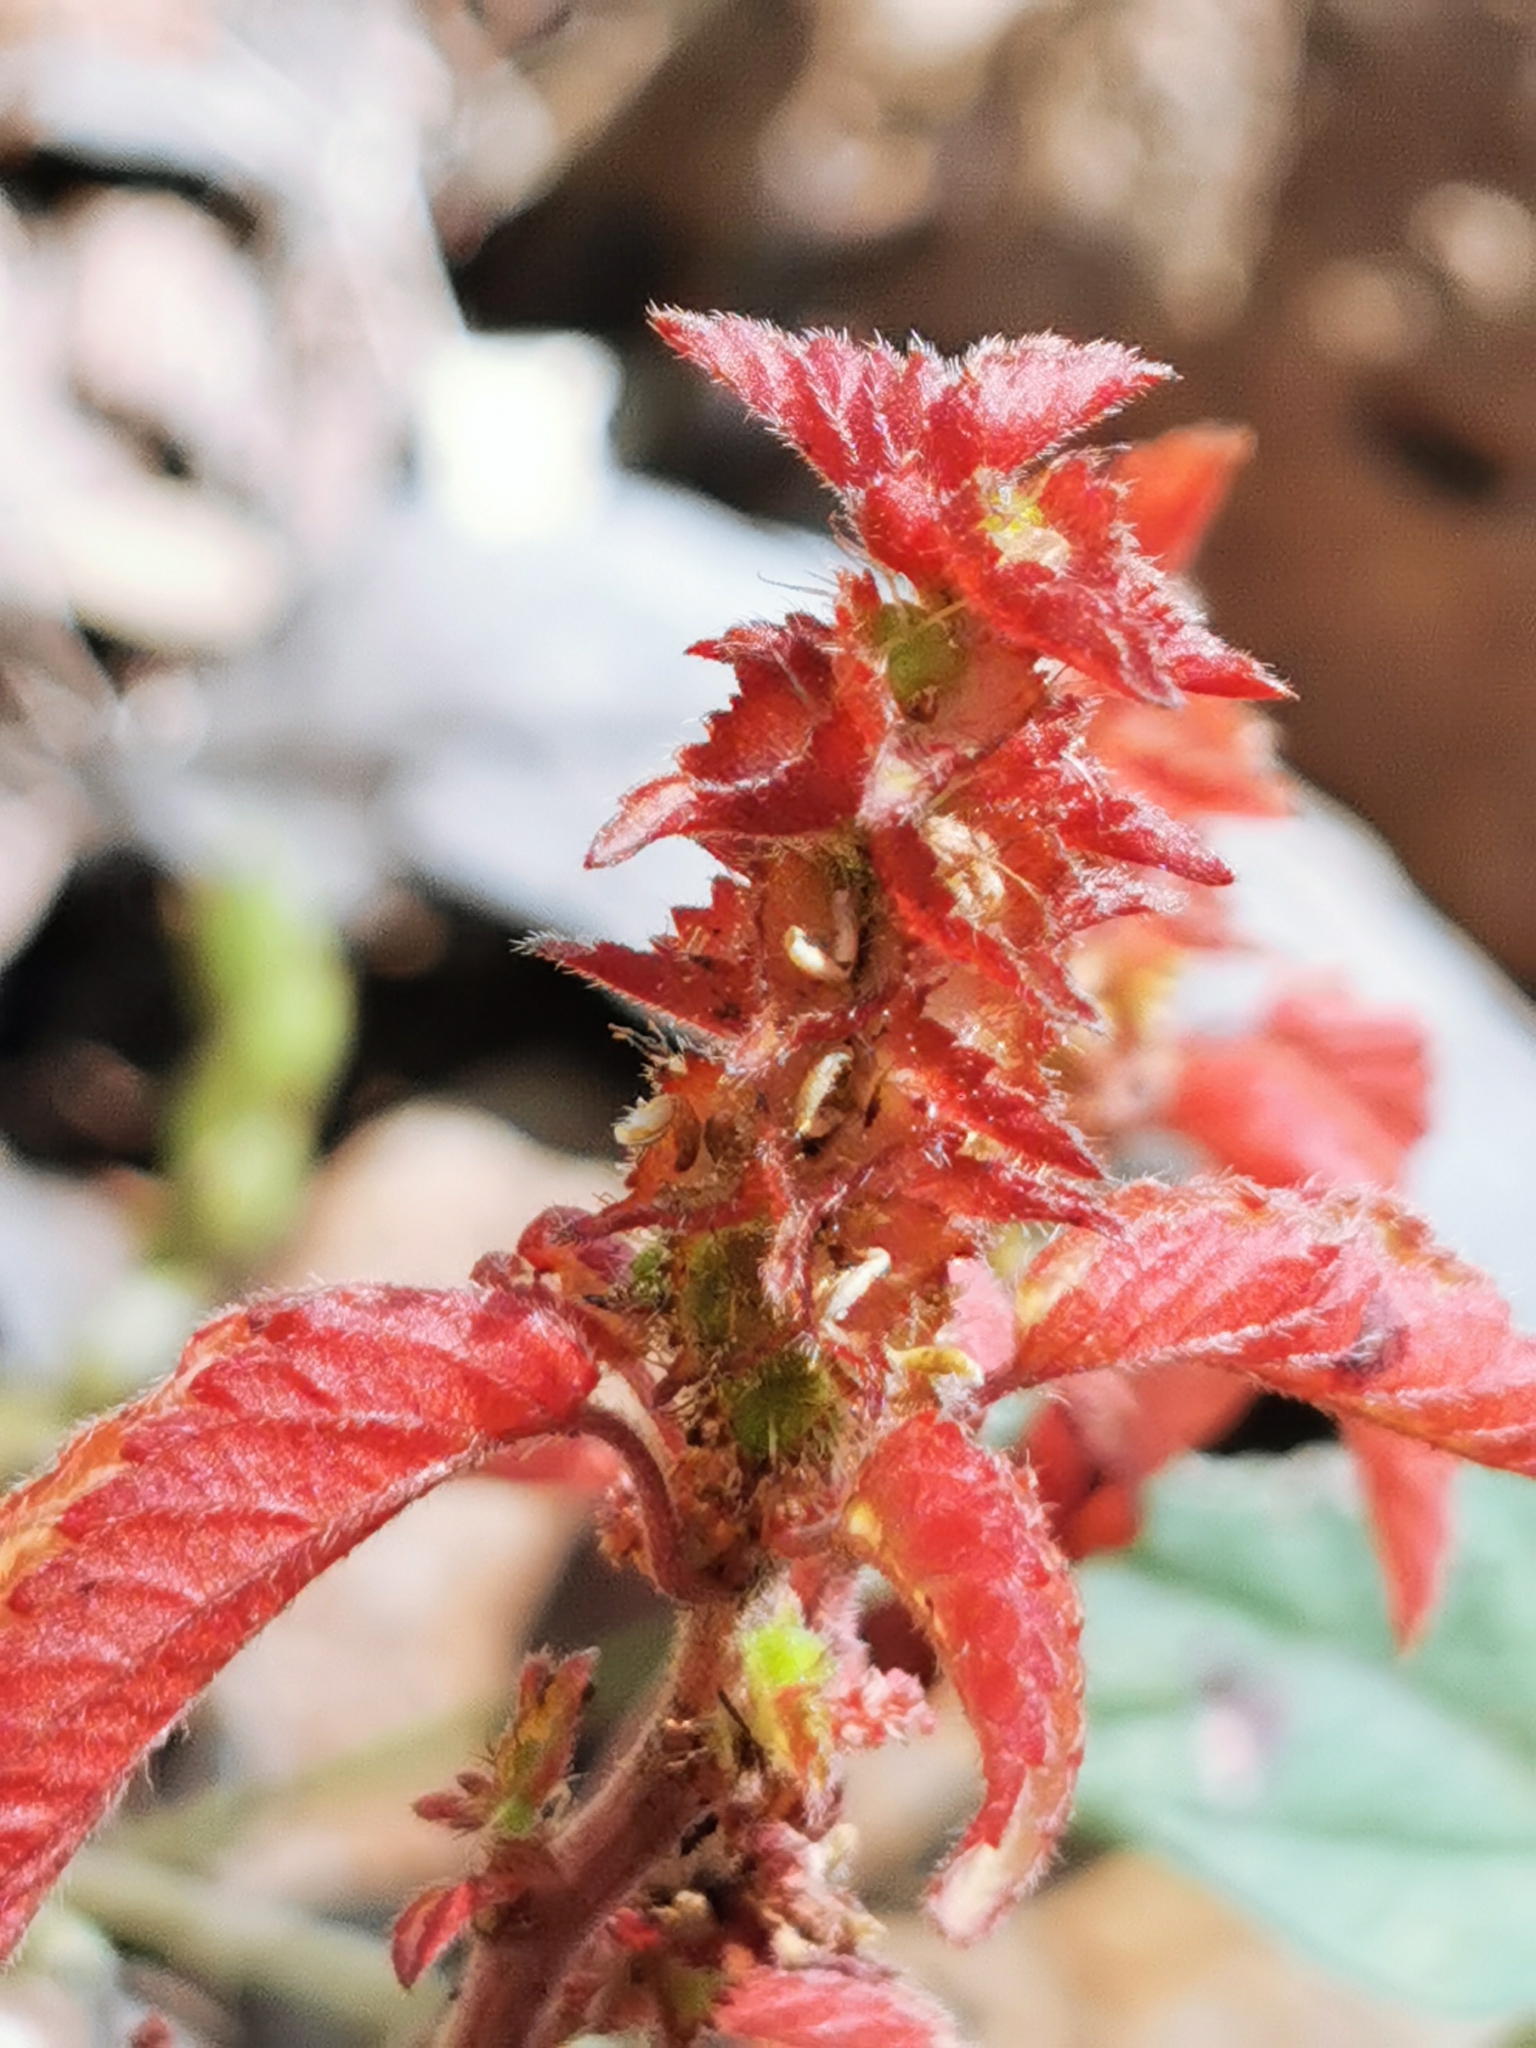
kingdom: Plantae
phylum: Tracheophyta
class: Magnoliopsida
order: Malpighiales
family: Euphorbiaceae
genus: Acalypha
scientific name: Acalypha neomexicana
